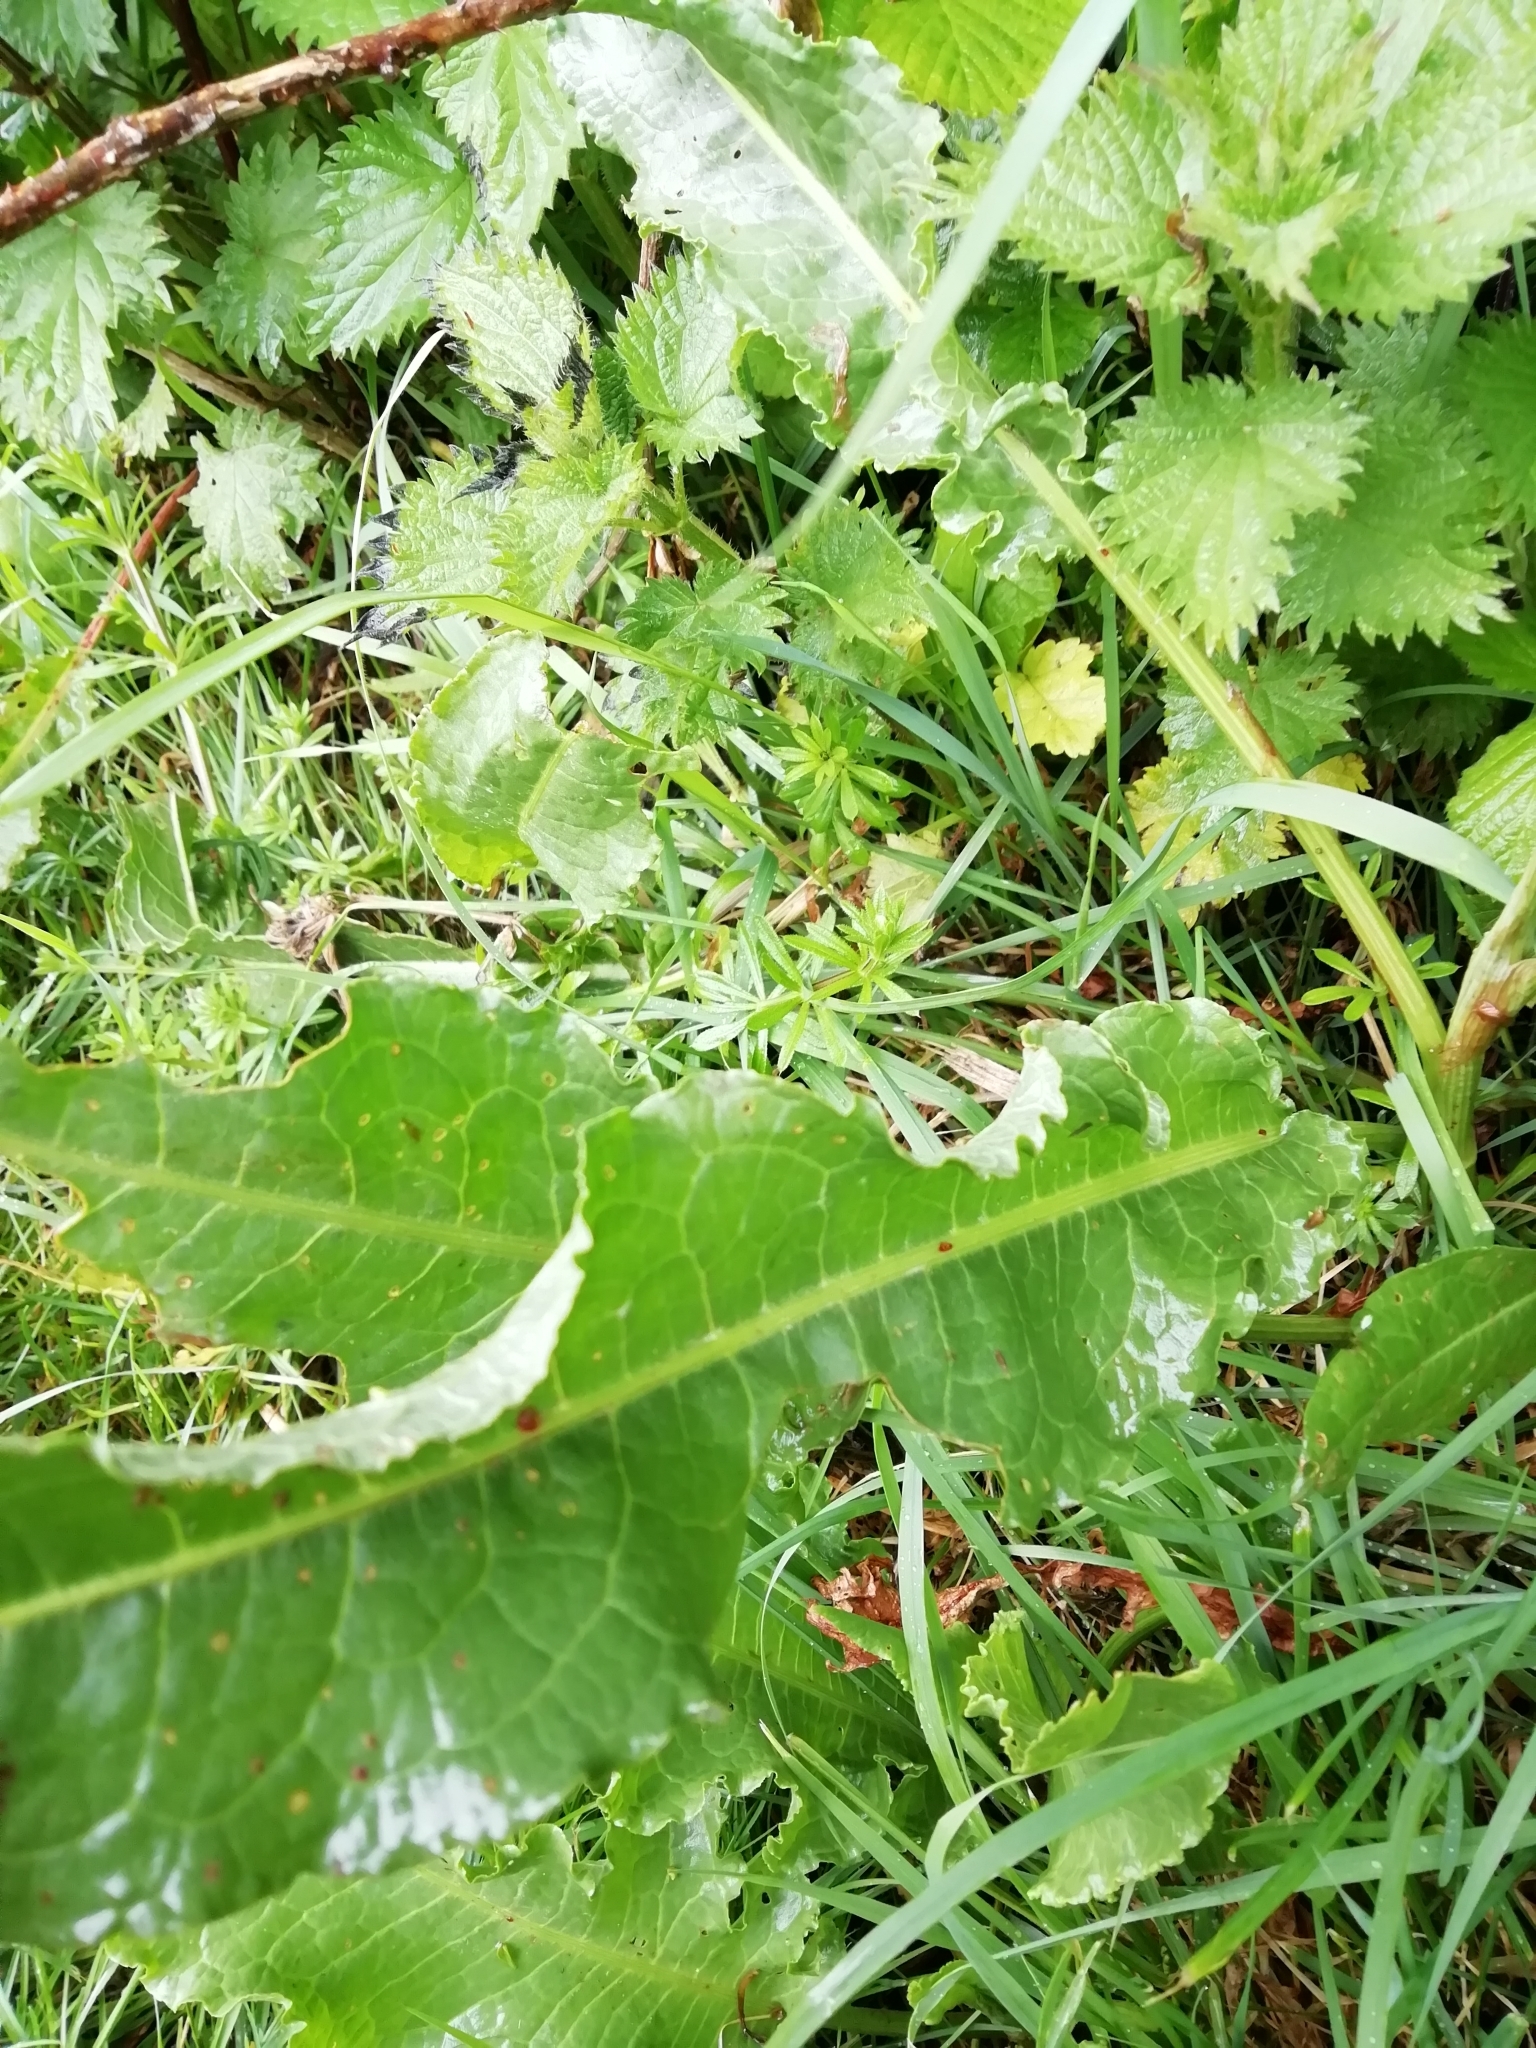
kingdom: Plantae
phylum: Tracheophyta
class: Magnoliopsida
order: Caryophyllales
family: Polygonaceae
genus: Rumex
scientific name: Rumex crispus
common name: Curled dock
